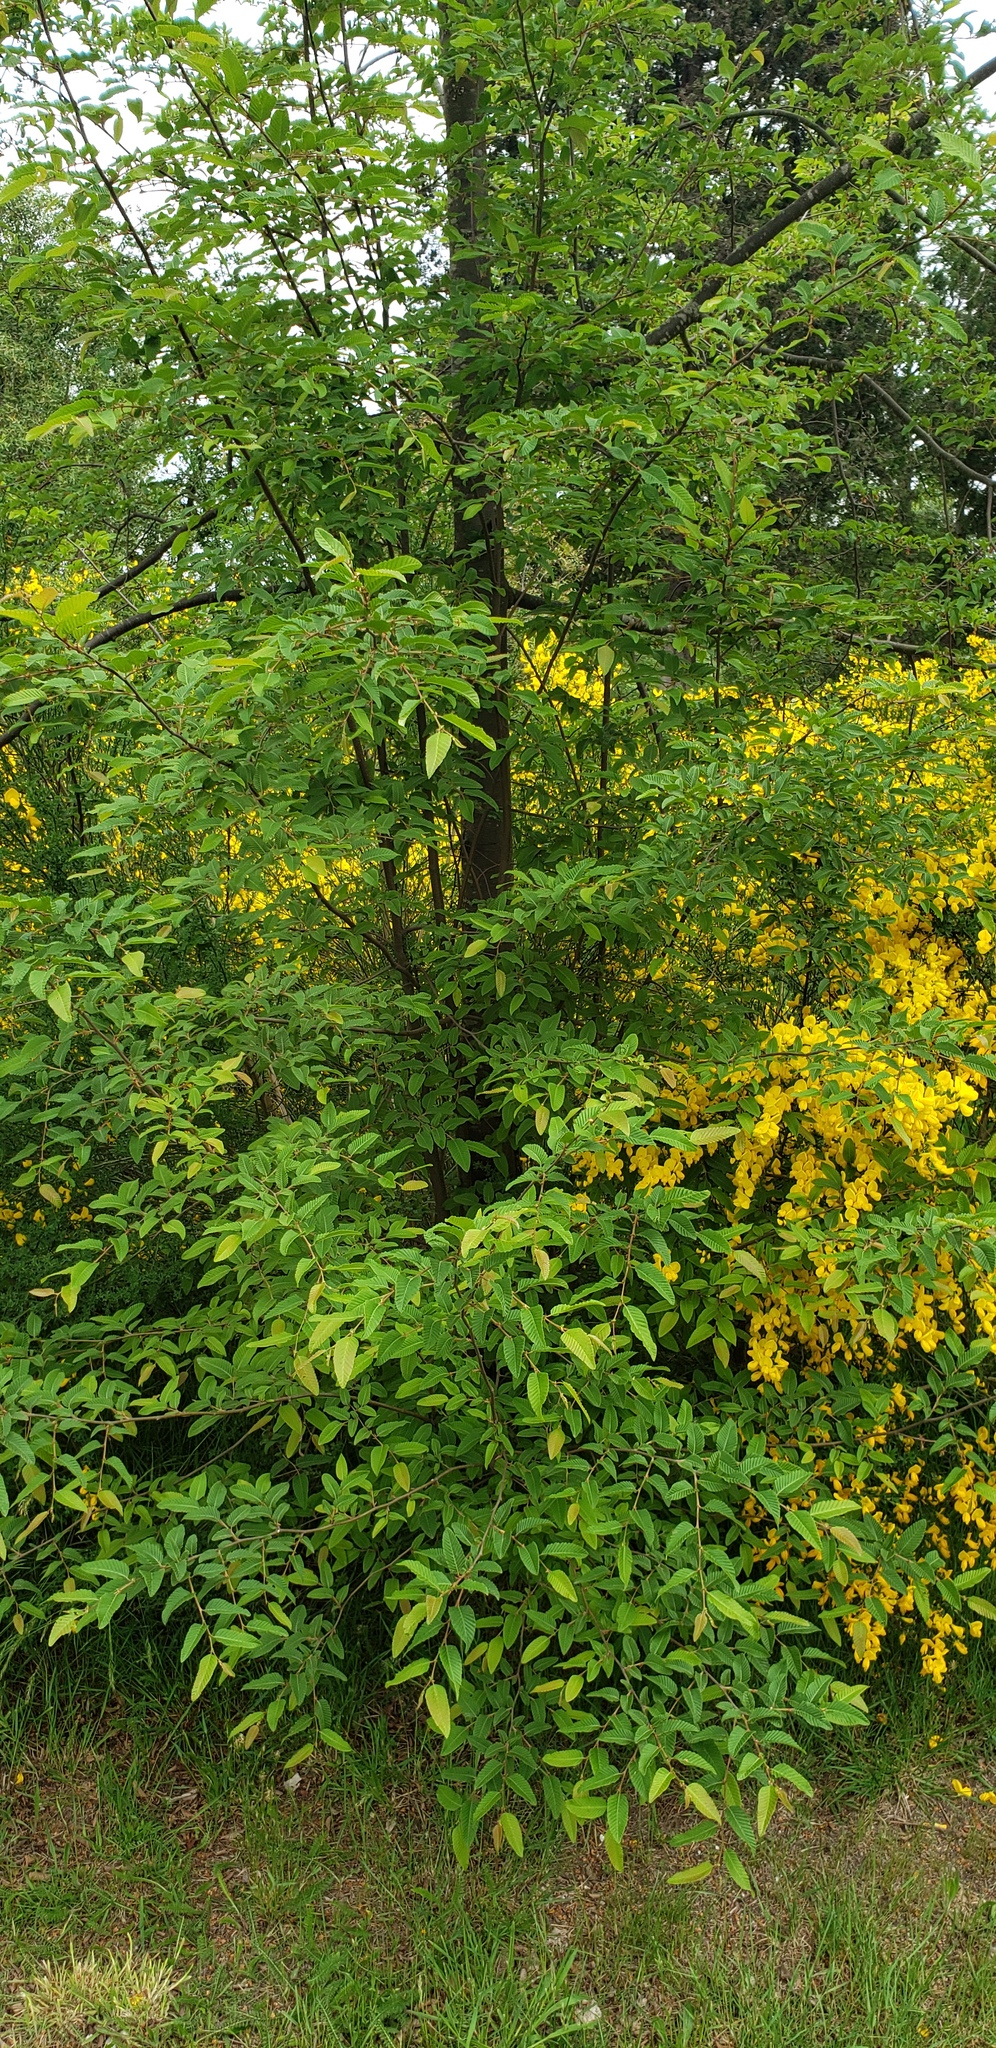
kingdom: Plantae
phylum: Tracheophyta
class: Magnoliopsida
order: Fagales
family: Nothofagaceae
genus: Nothofagus
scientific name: Nothofagus alpina
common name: Rauli
